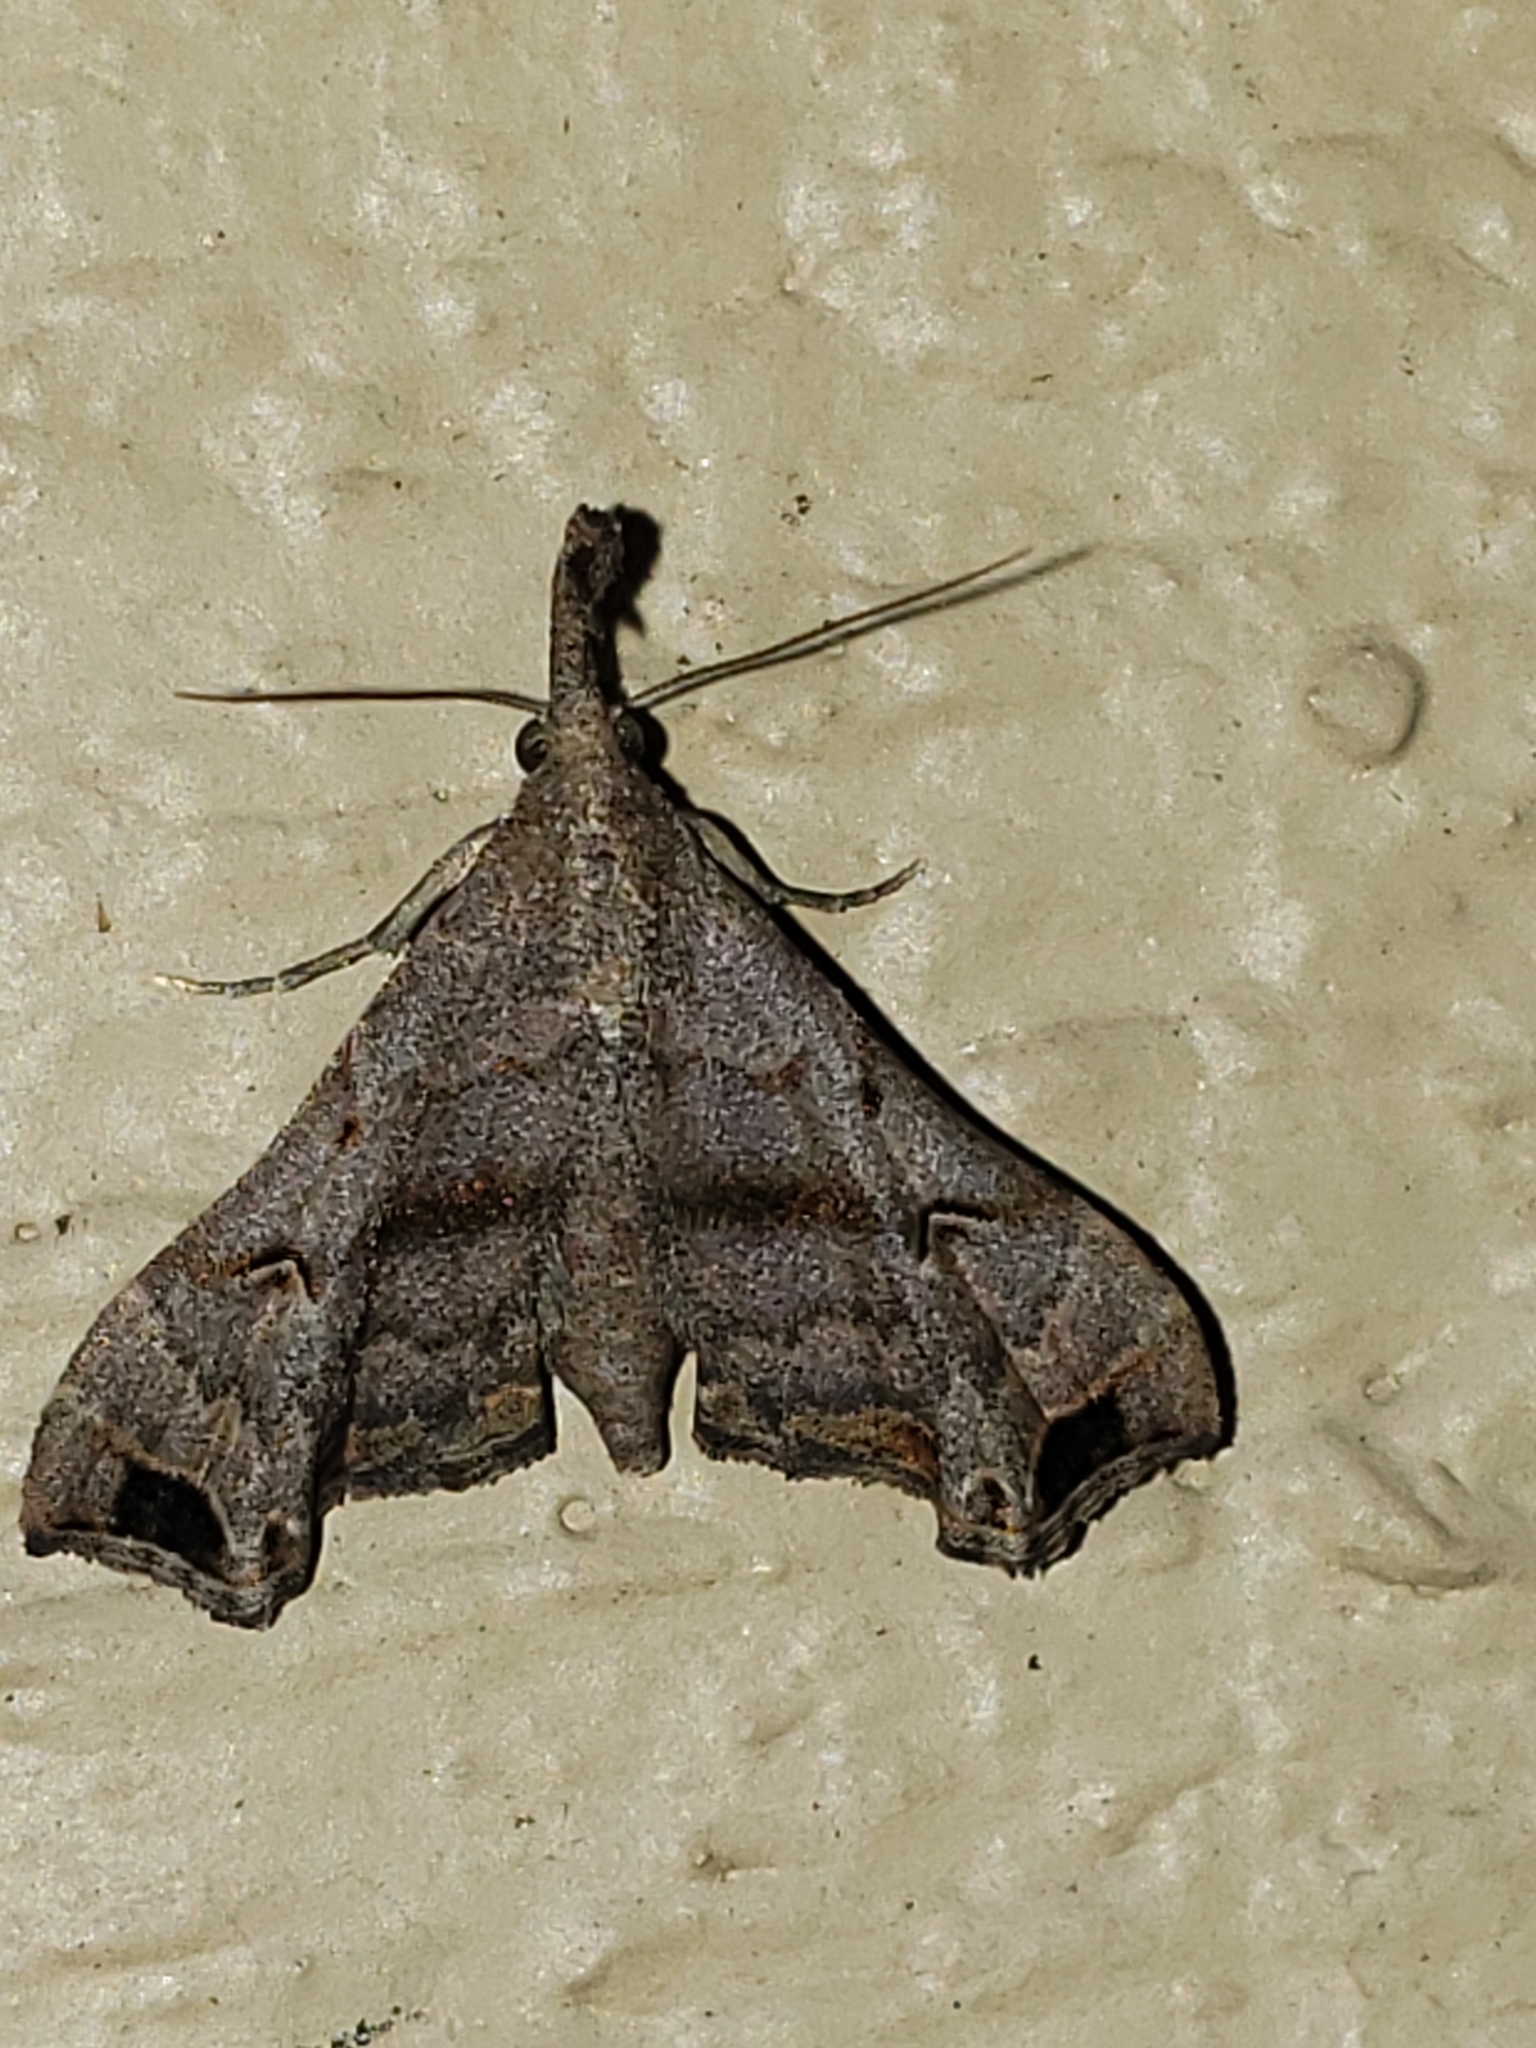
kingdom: Animalia
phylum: Arthropoda
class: Insecta
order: Lepidoptera
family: Erebidae
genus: Palthis
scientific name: Palthis asopialis
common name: Faint-spotted palthis moth
